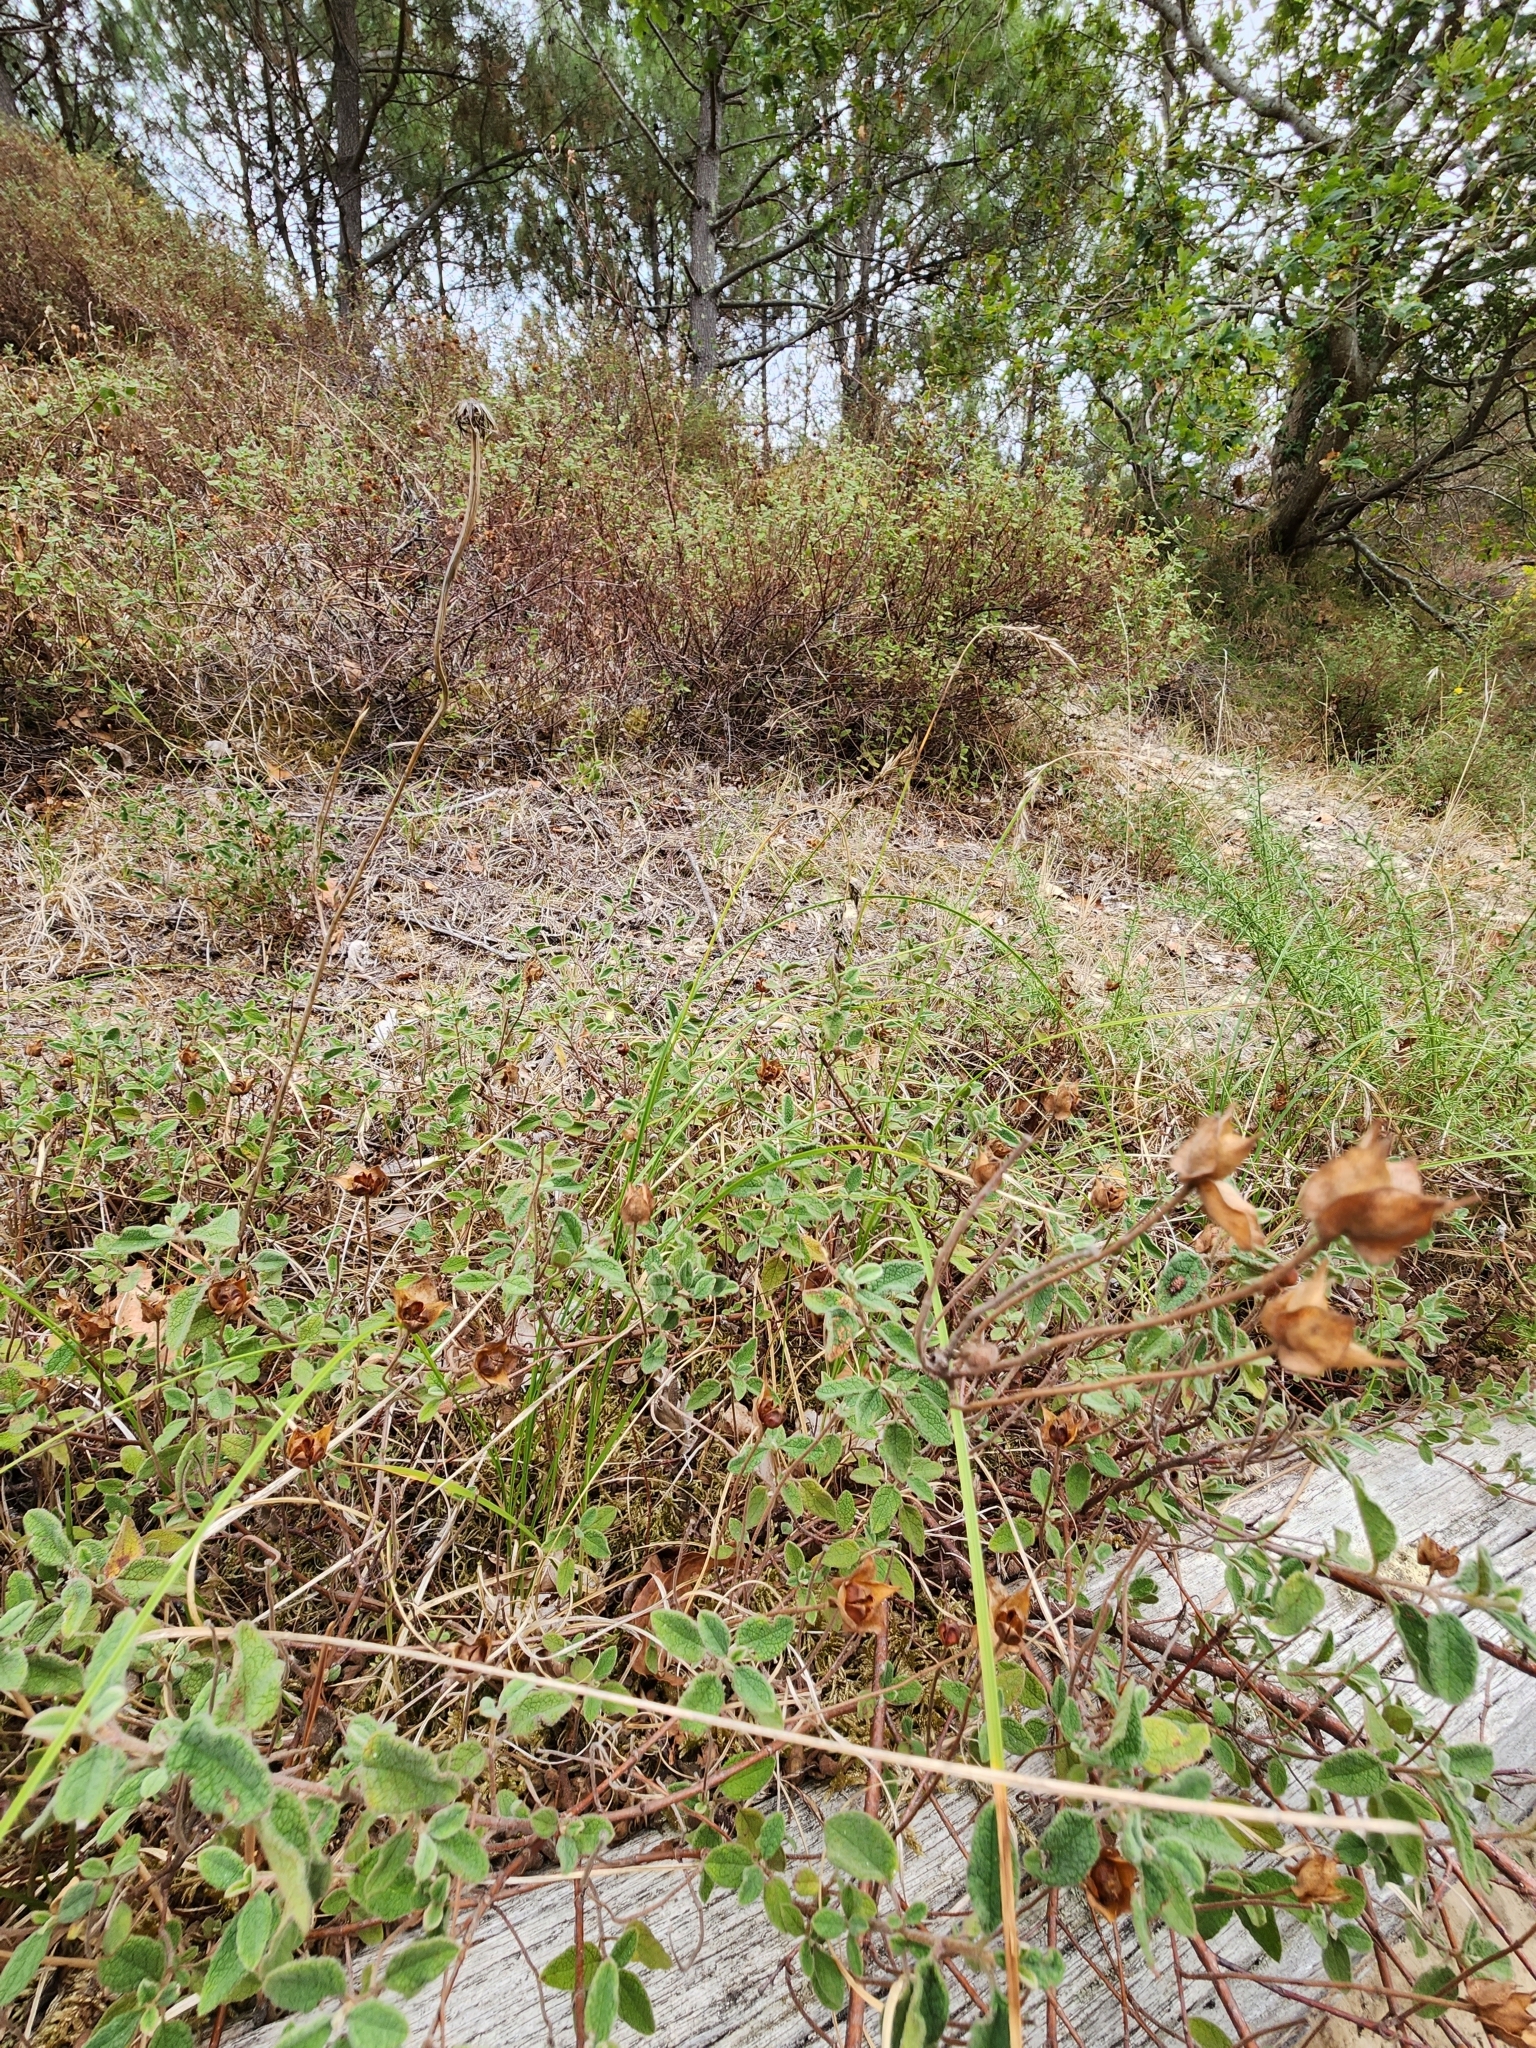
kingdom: Plantae
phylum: Tracheophyta
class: Magnoliopsida
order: Malvales
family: Cistaceae
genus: Cistus
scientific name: Cistus salviifolius
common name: Salvia cistus
